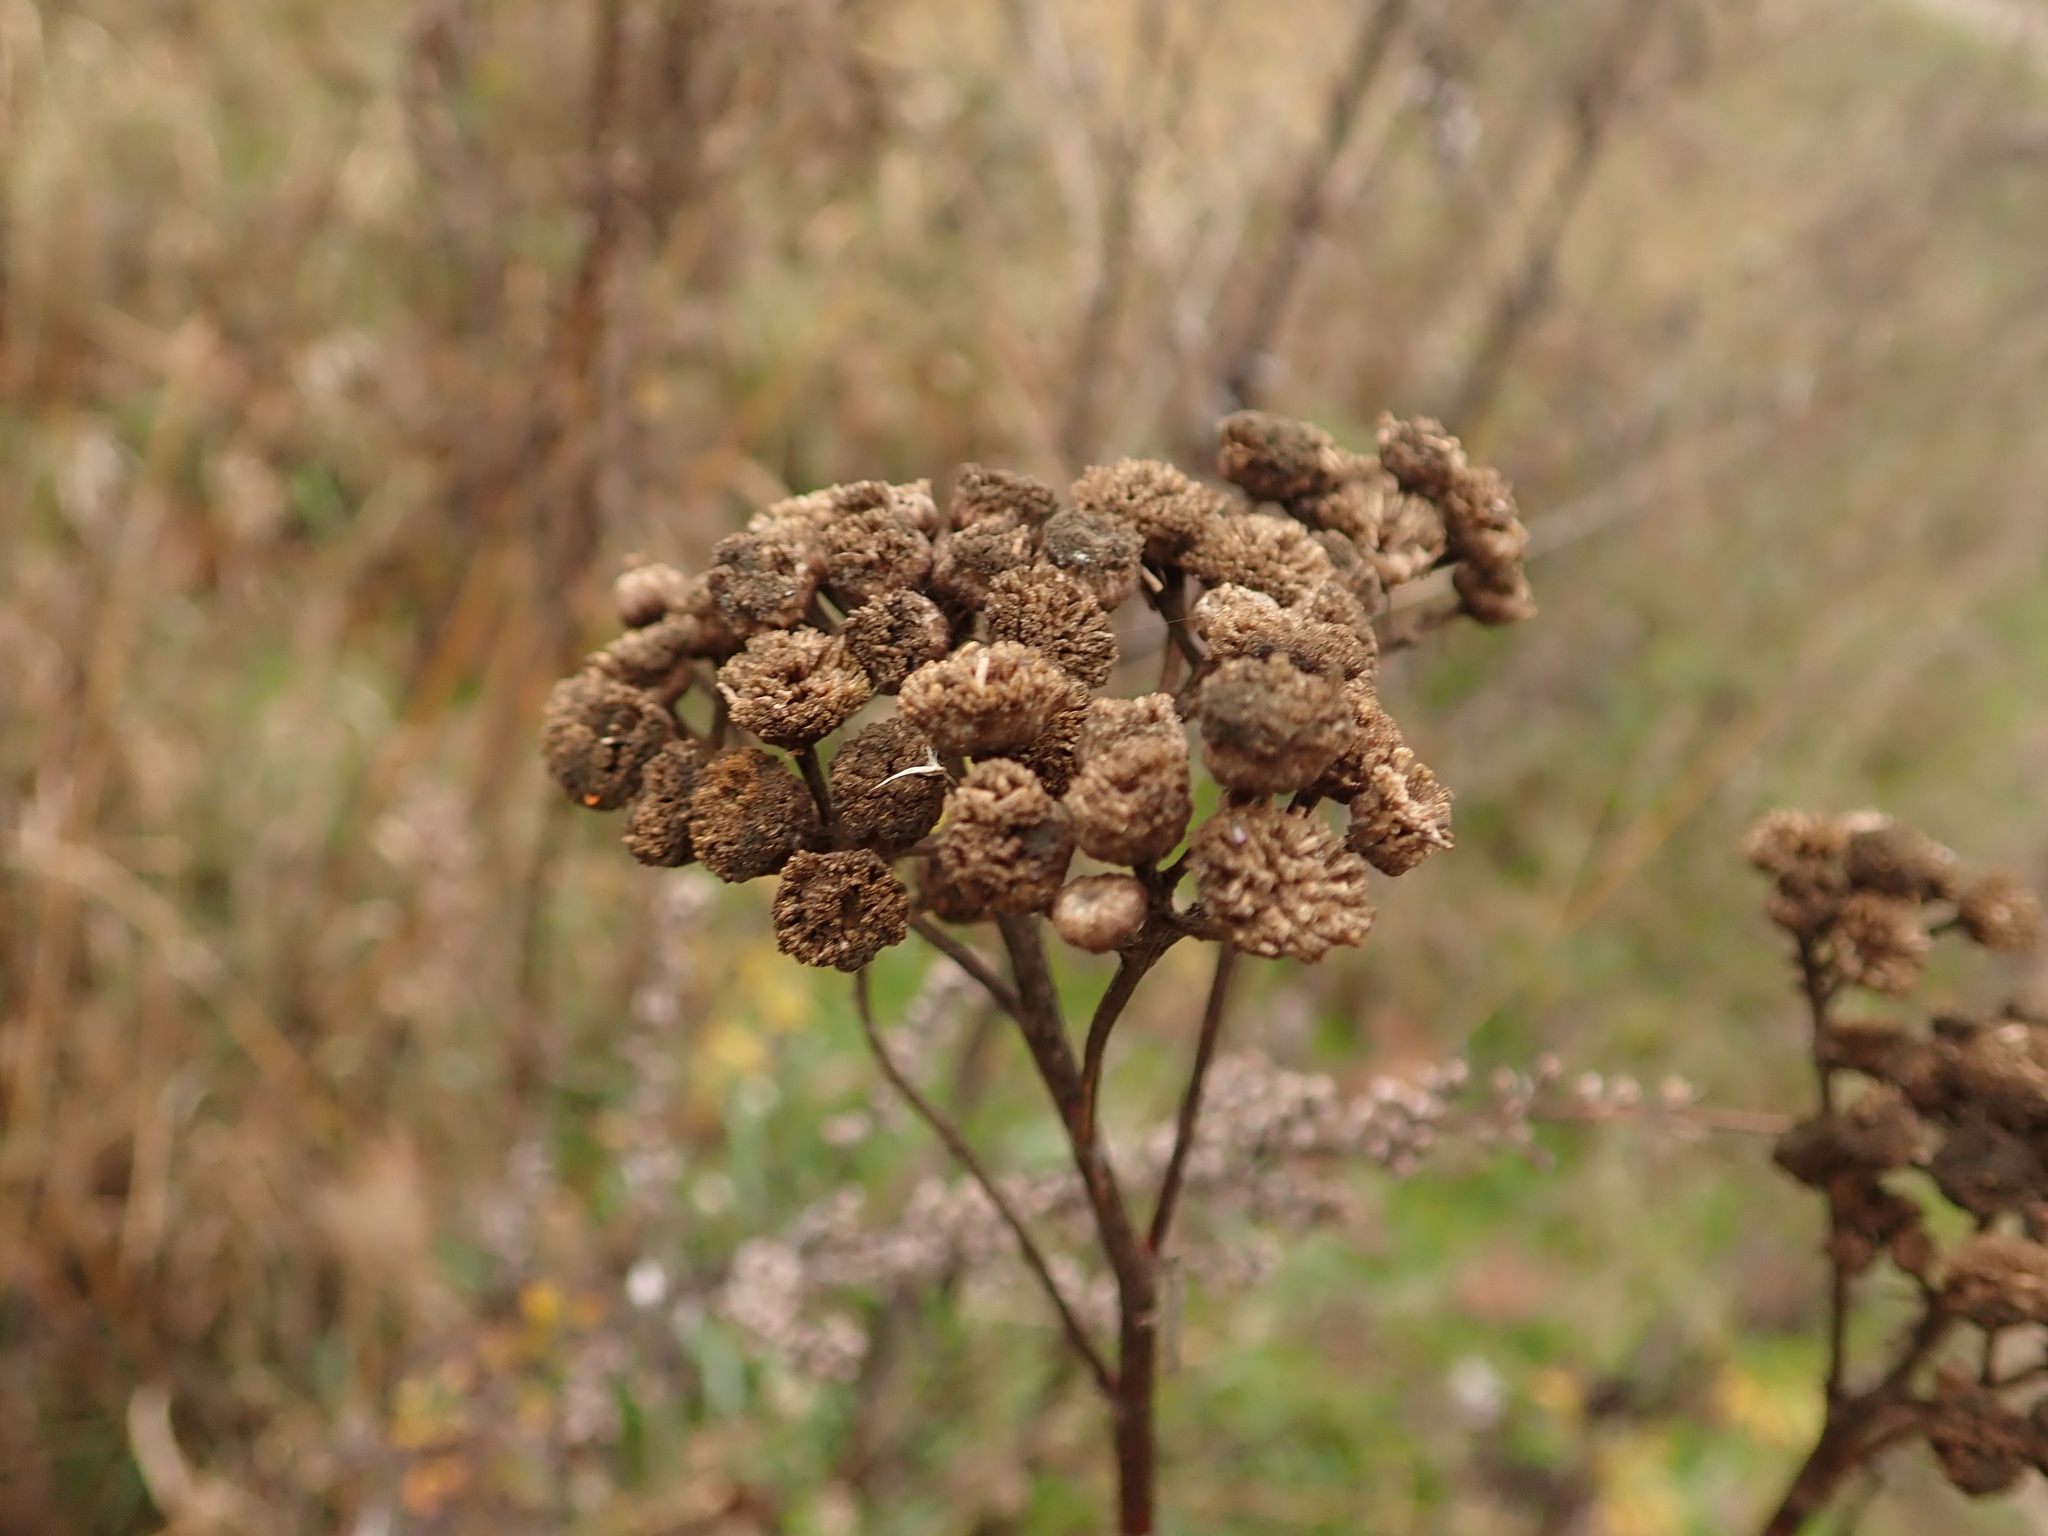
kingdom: Plantae
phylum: Tracheophyta
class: Magnoliopsida
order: Asterales
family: Asteraceae
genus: Tanacetum
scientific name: Tanacetum vulgare
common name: Common tansy
